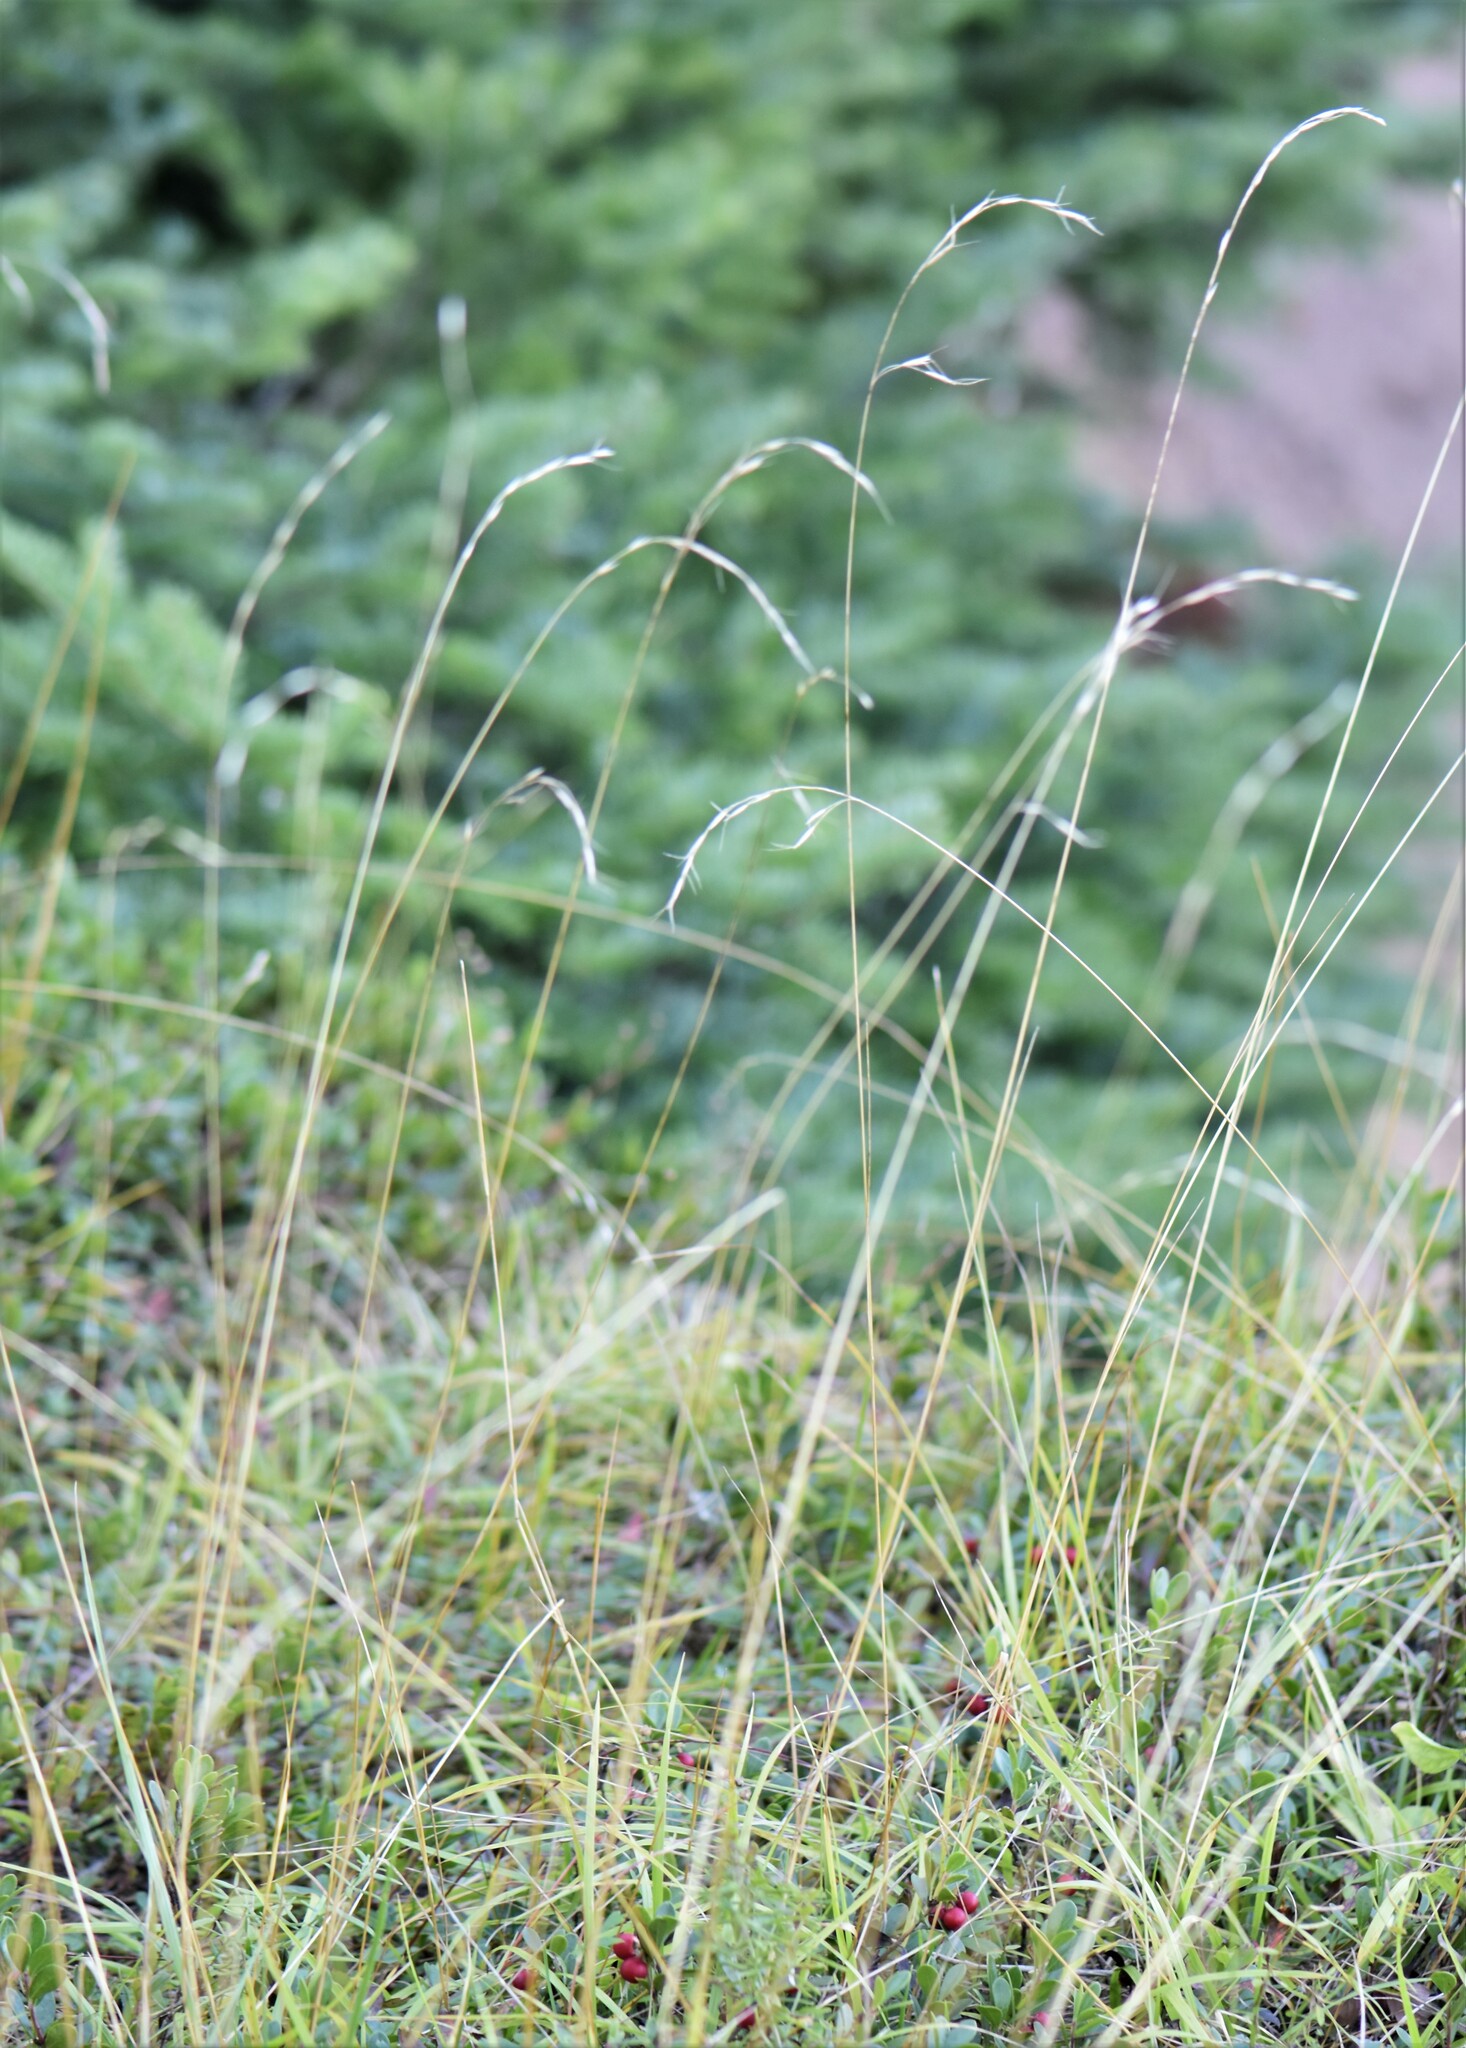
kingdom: Plantae
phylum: Tracheophyta
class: Liliopsida
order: Poales
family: Poaceae
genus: Schizachne
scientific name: Schizachne purpurascens
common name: False melic
